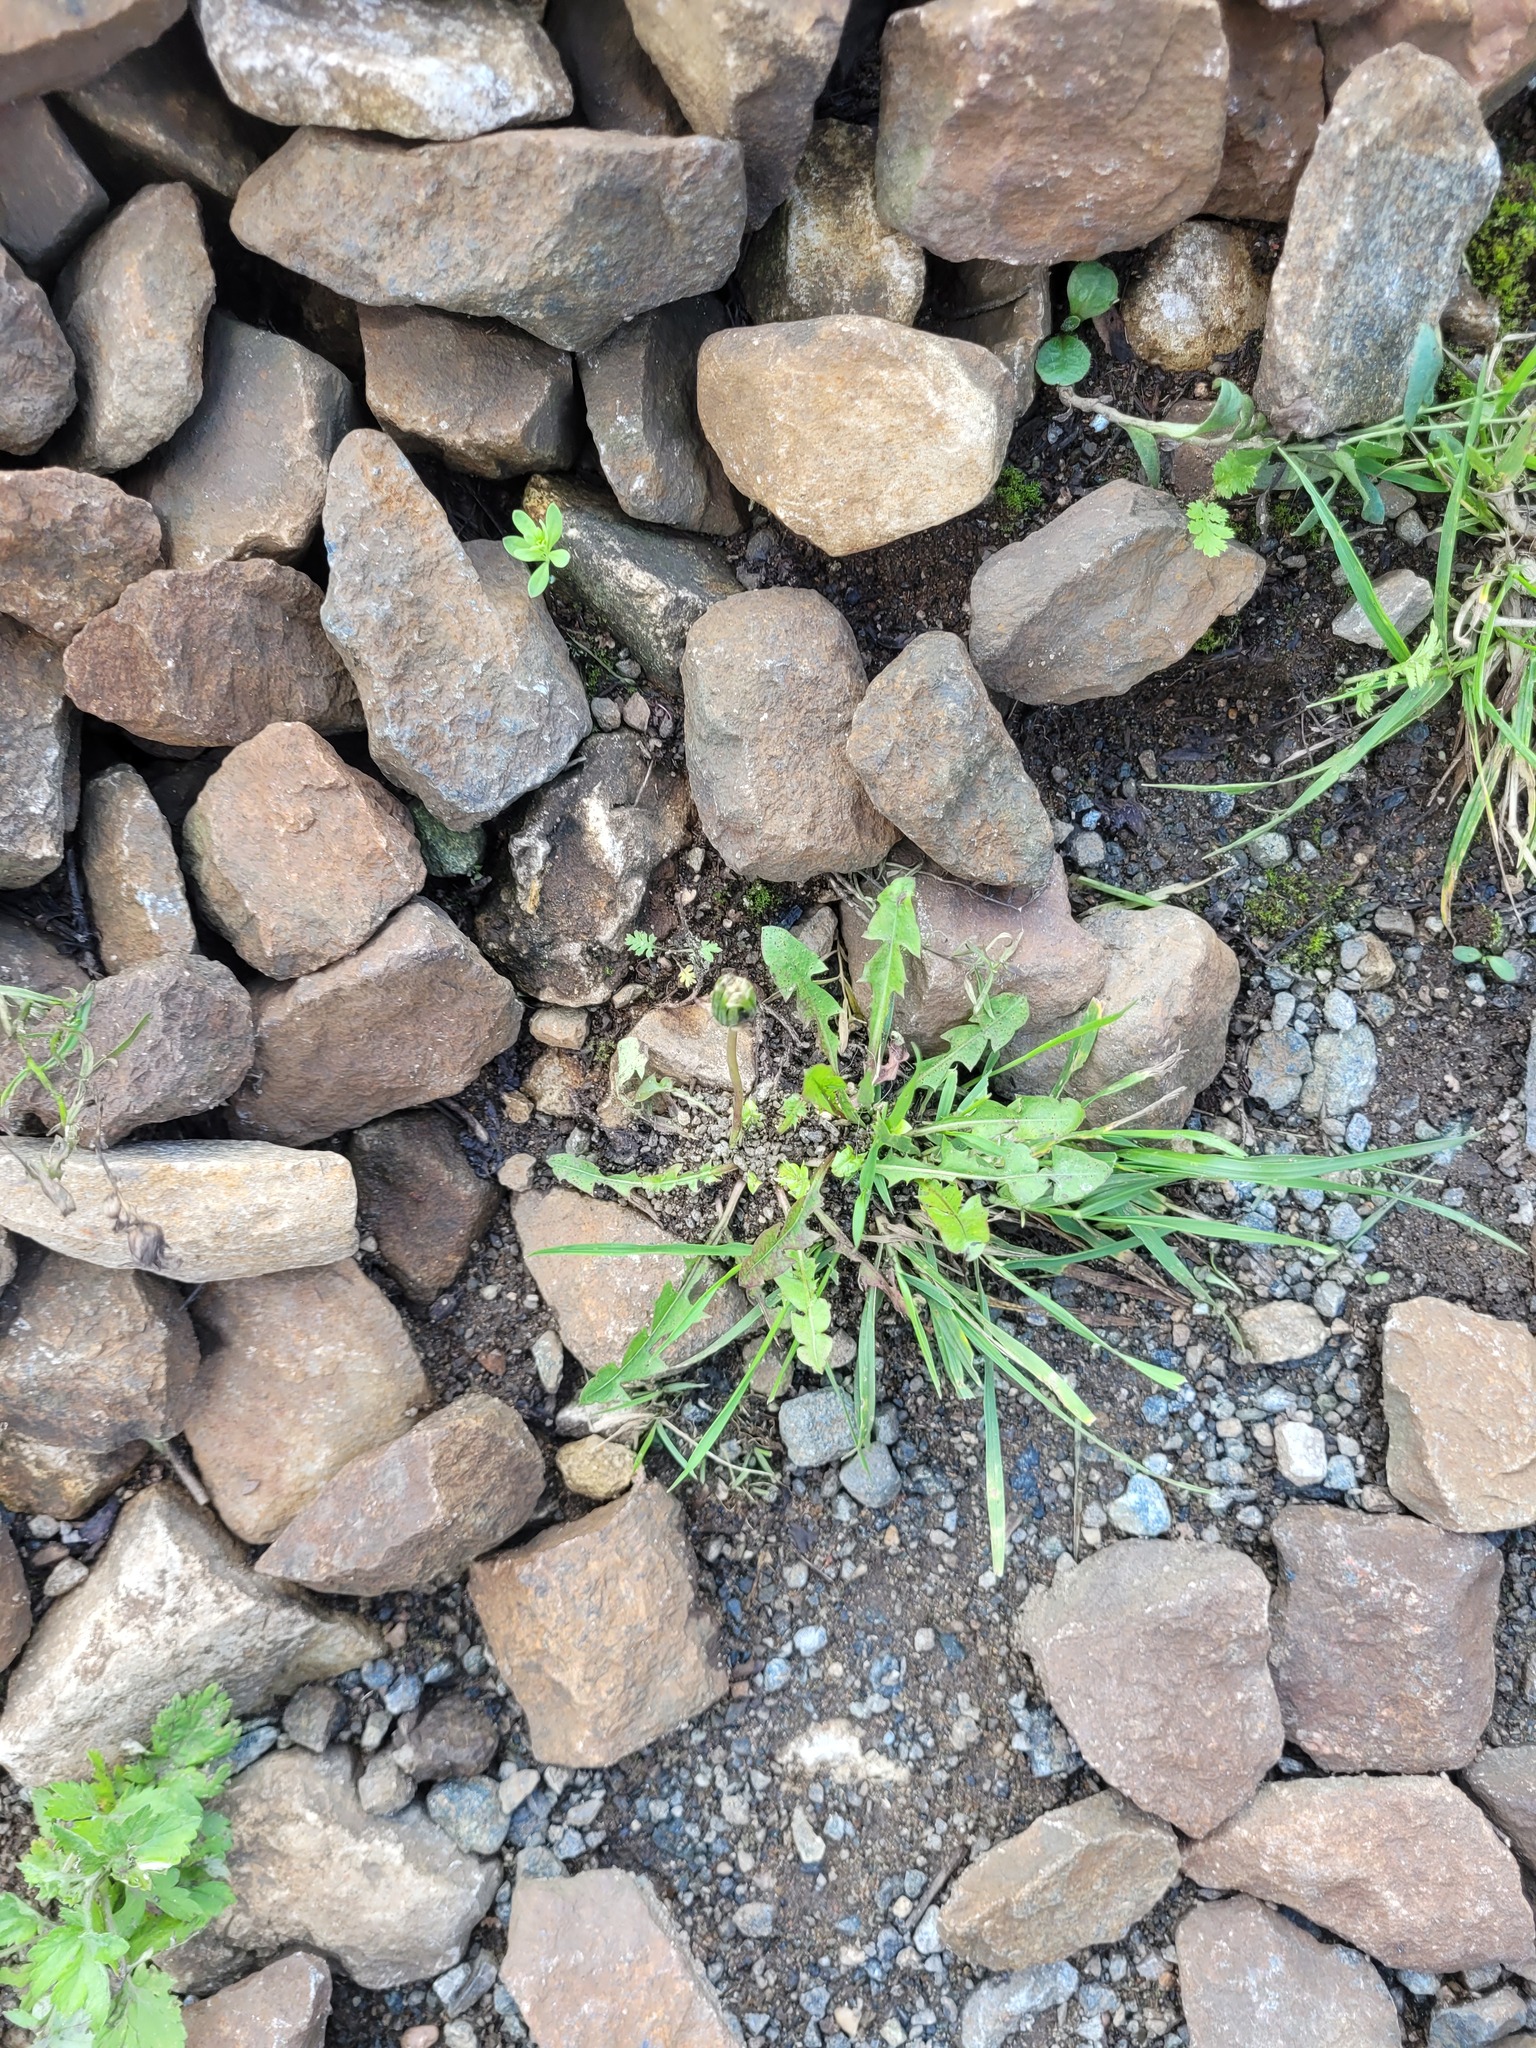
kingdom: Plantae
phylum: Tracheophyta
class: Magnoliopsida
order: Asterales
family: Asteraceae
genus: Taraxacum
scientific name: Taraxacum officinale
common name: Common dandelion
